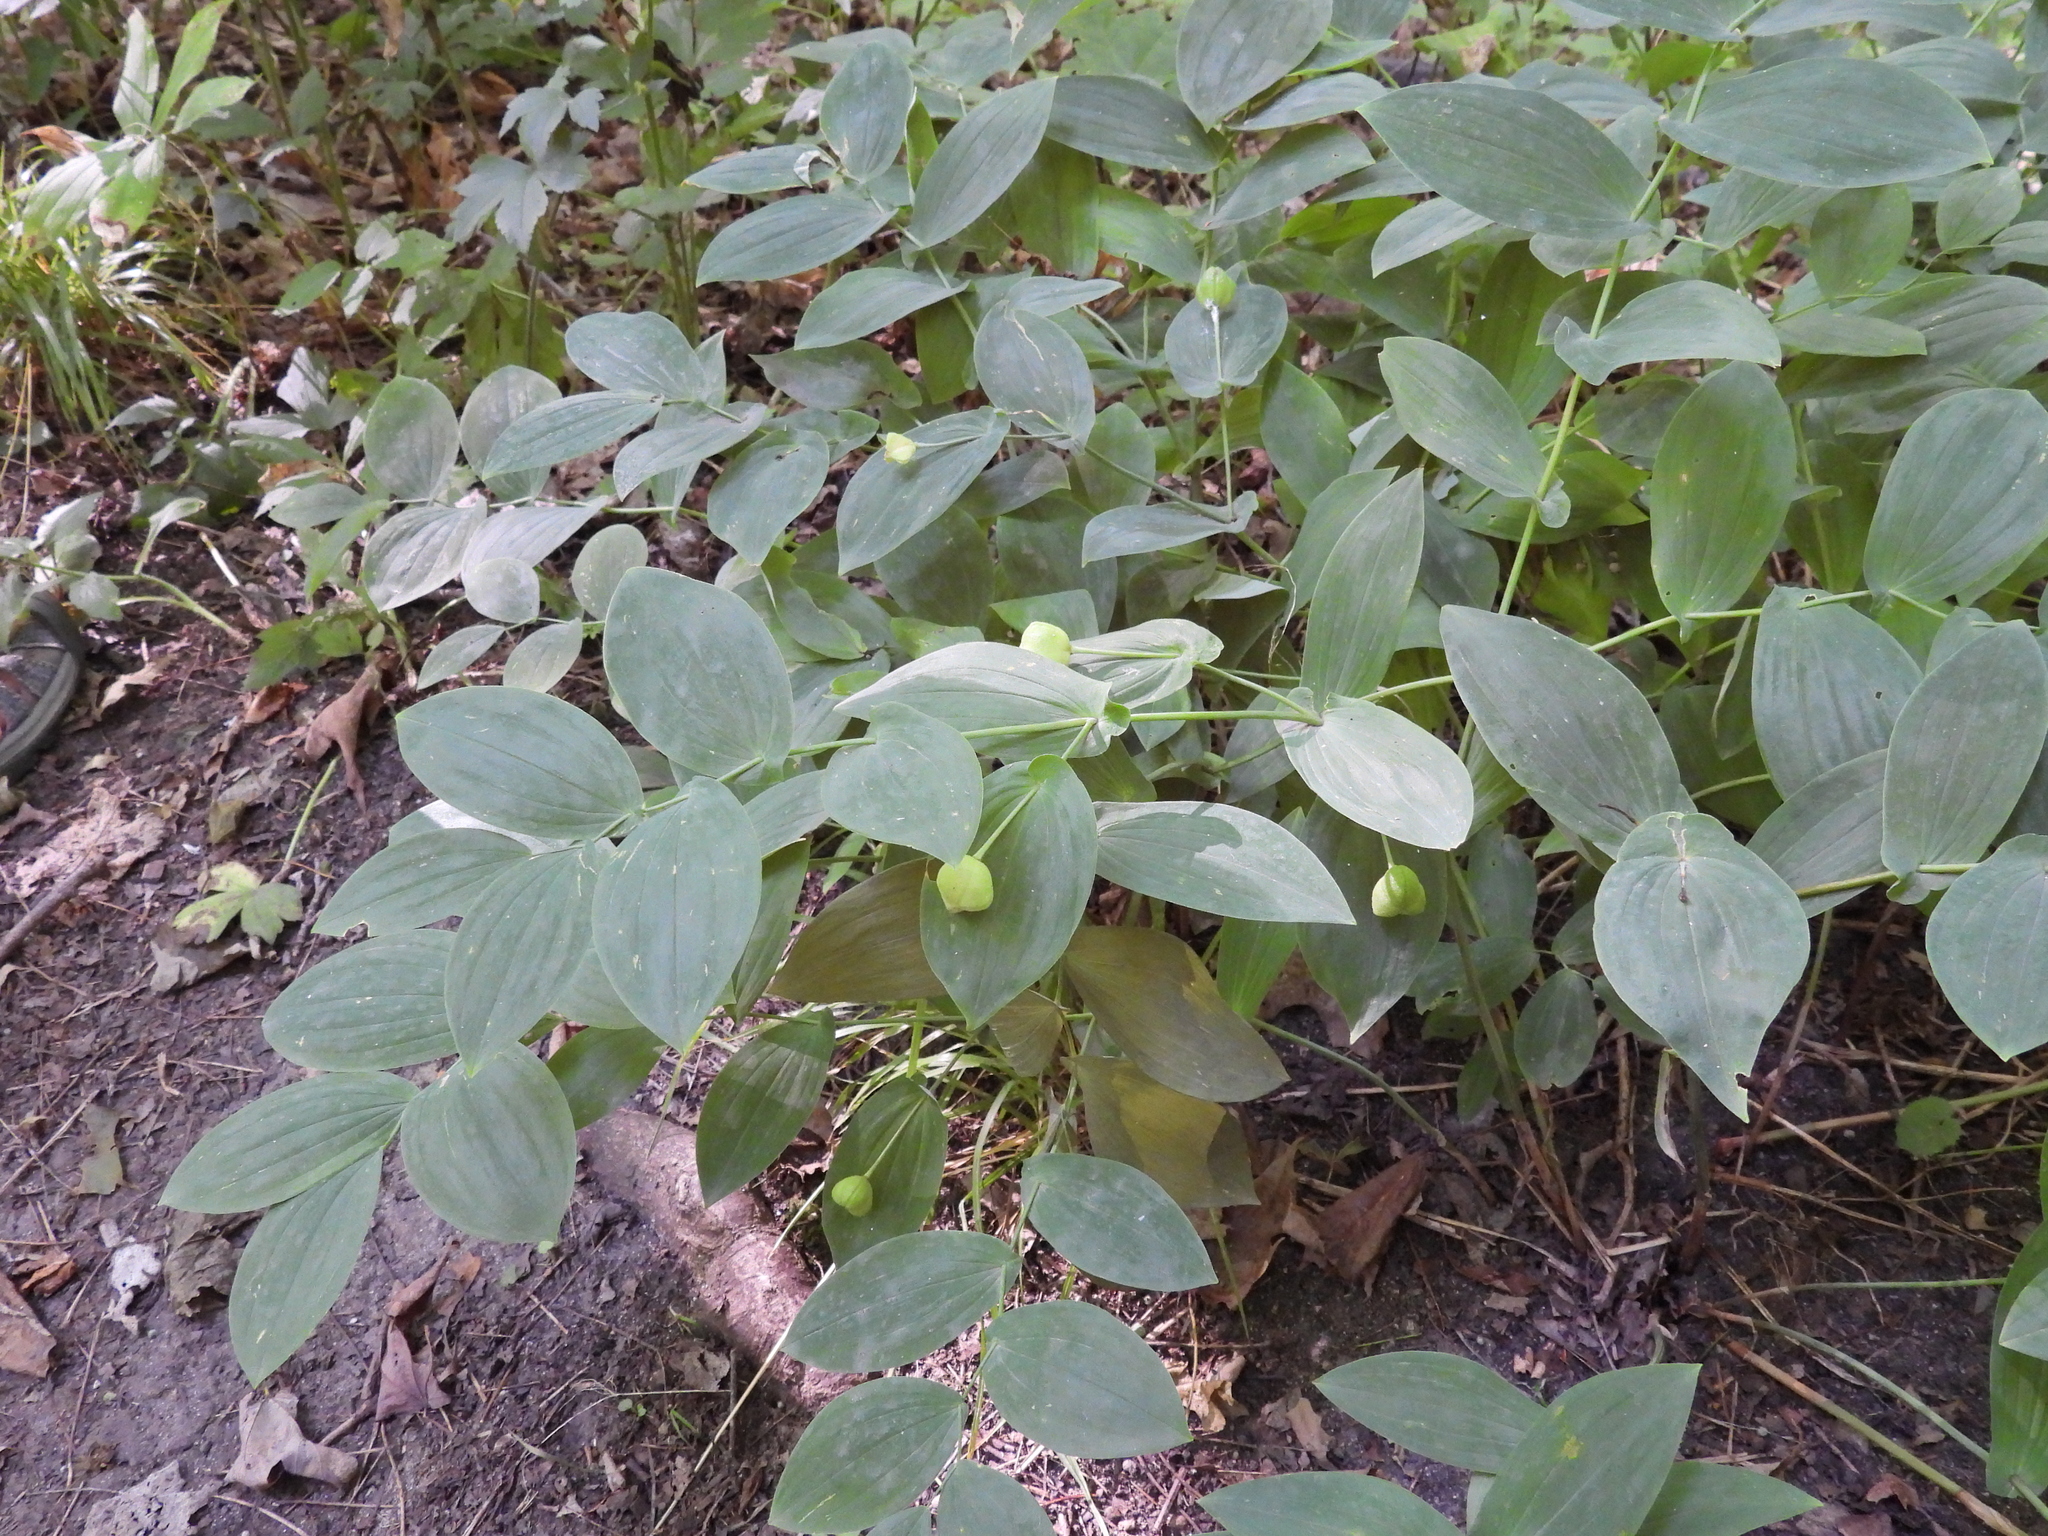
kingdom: Plantae
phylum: Tracheophyta
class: Liliopsida
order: Liliales
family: Colchicaceae
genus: Uvularia
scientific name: Uvularia grandiflora
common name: Bellwort
